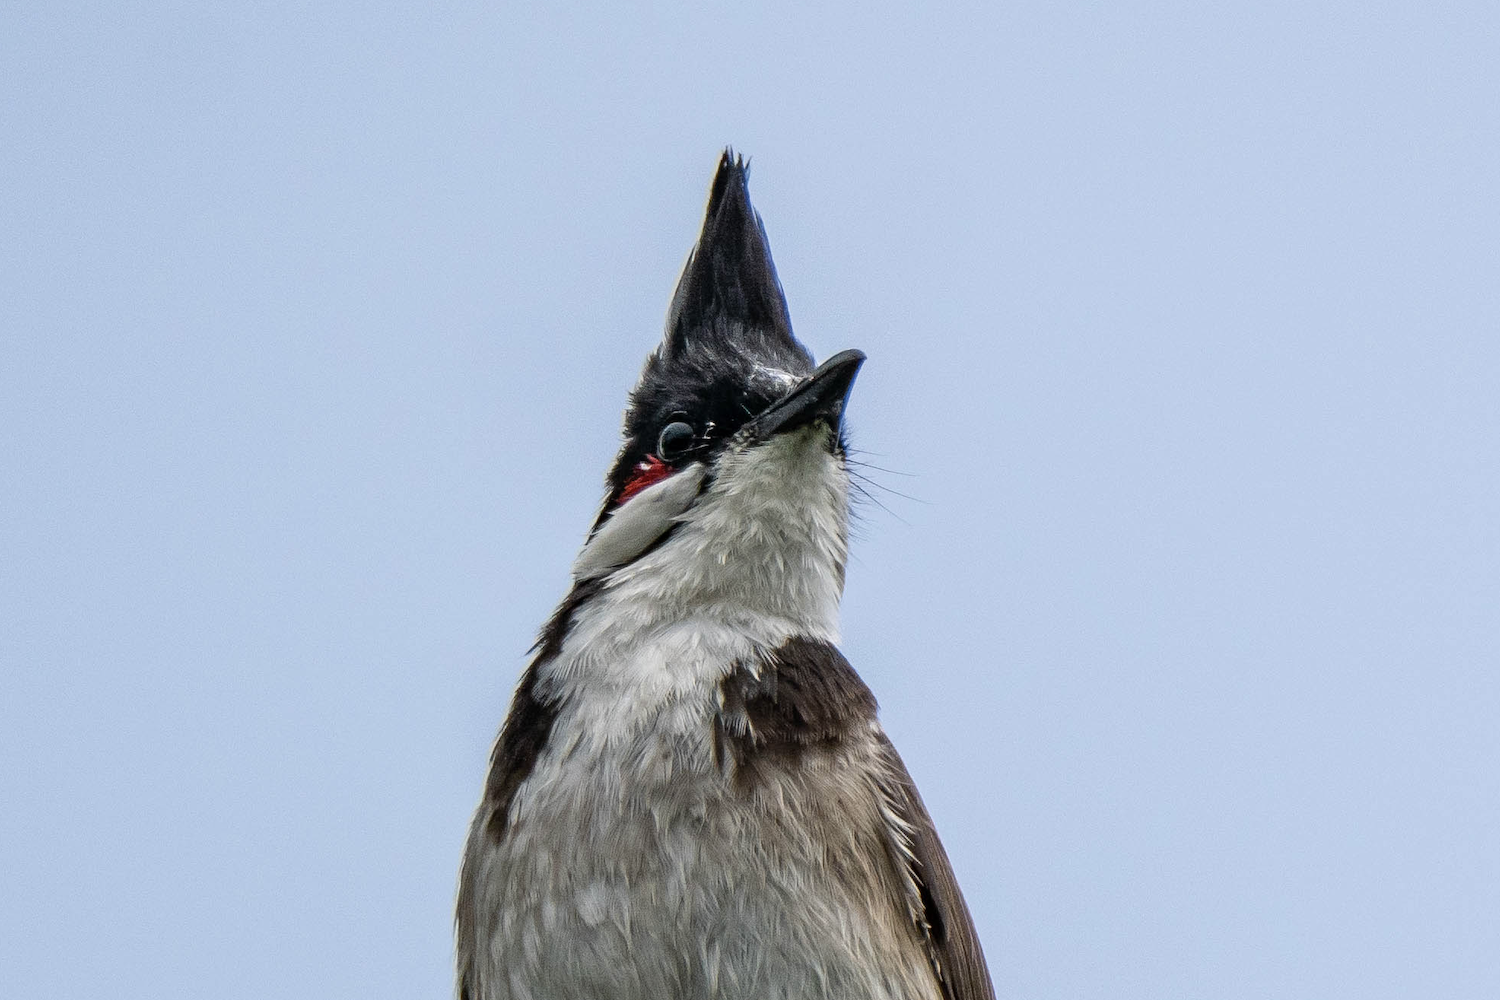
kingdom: Animalia
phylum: Chordata
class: Aves
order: Passeriformes
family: Pycnonotidae
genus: Pycnonotus
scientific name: Pycnonotus jocosus
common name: Red-whiskered bulbul
